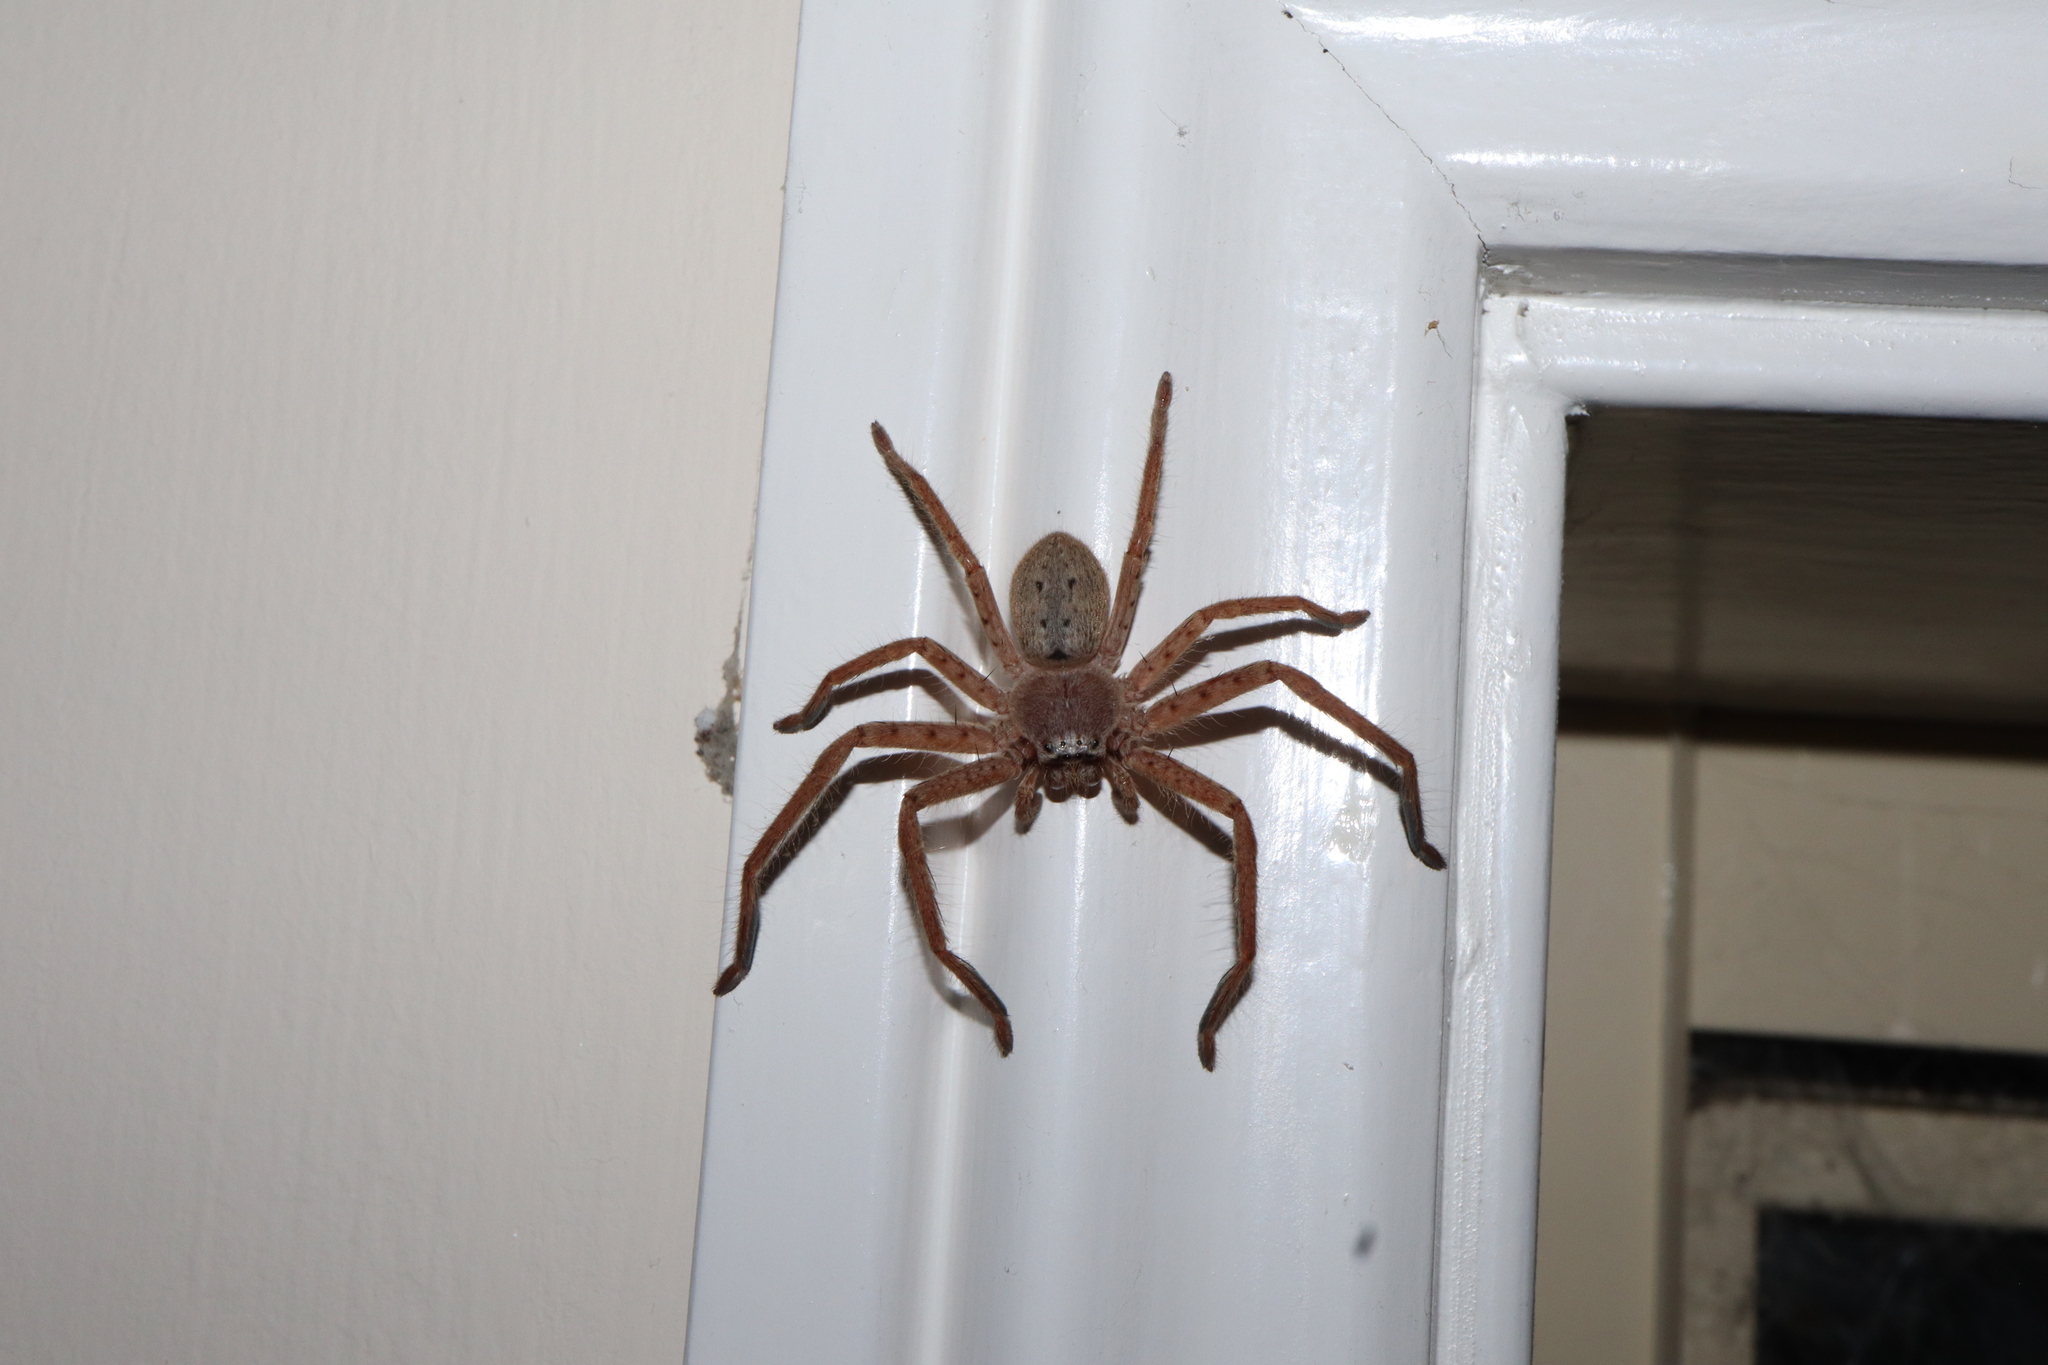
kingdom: Animalia
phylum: Arthropoda
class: Arachnida
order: Araneae
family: Sparassidae
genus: Isopeda
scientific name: Isopeda villosa
